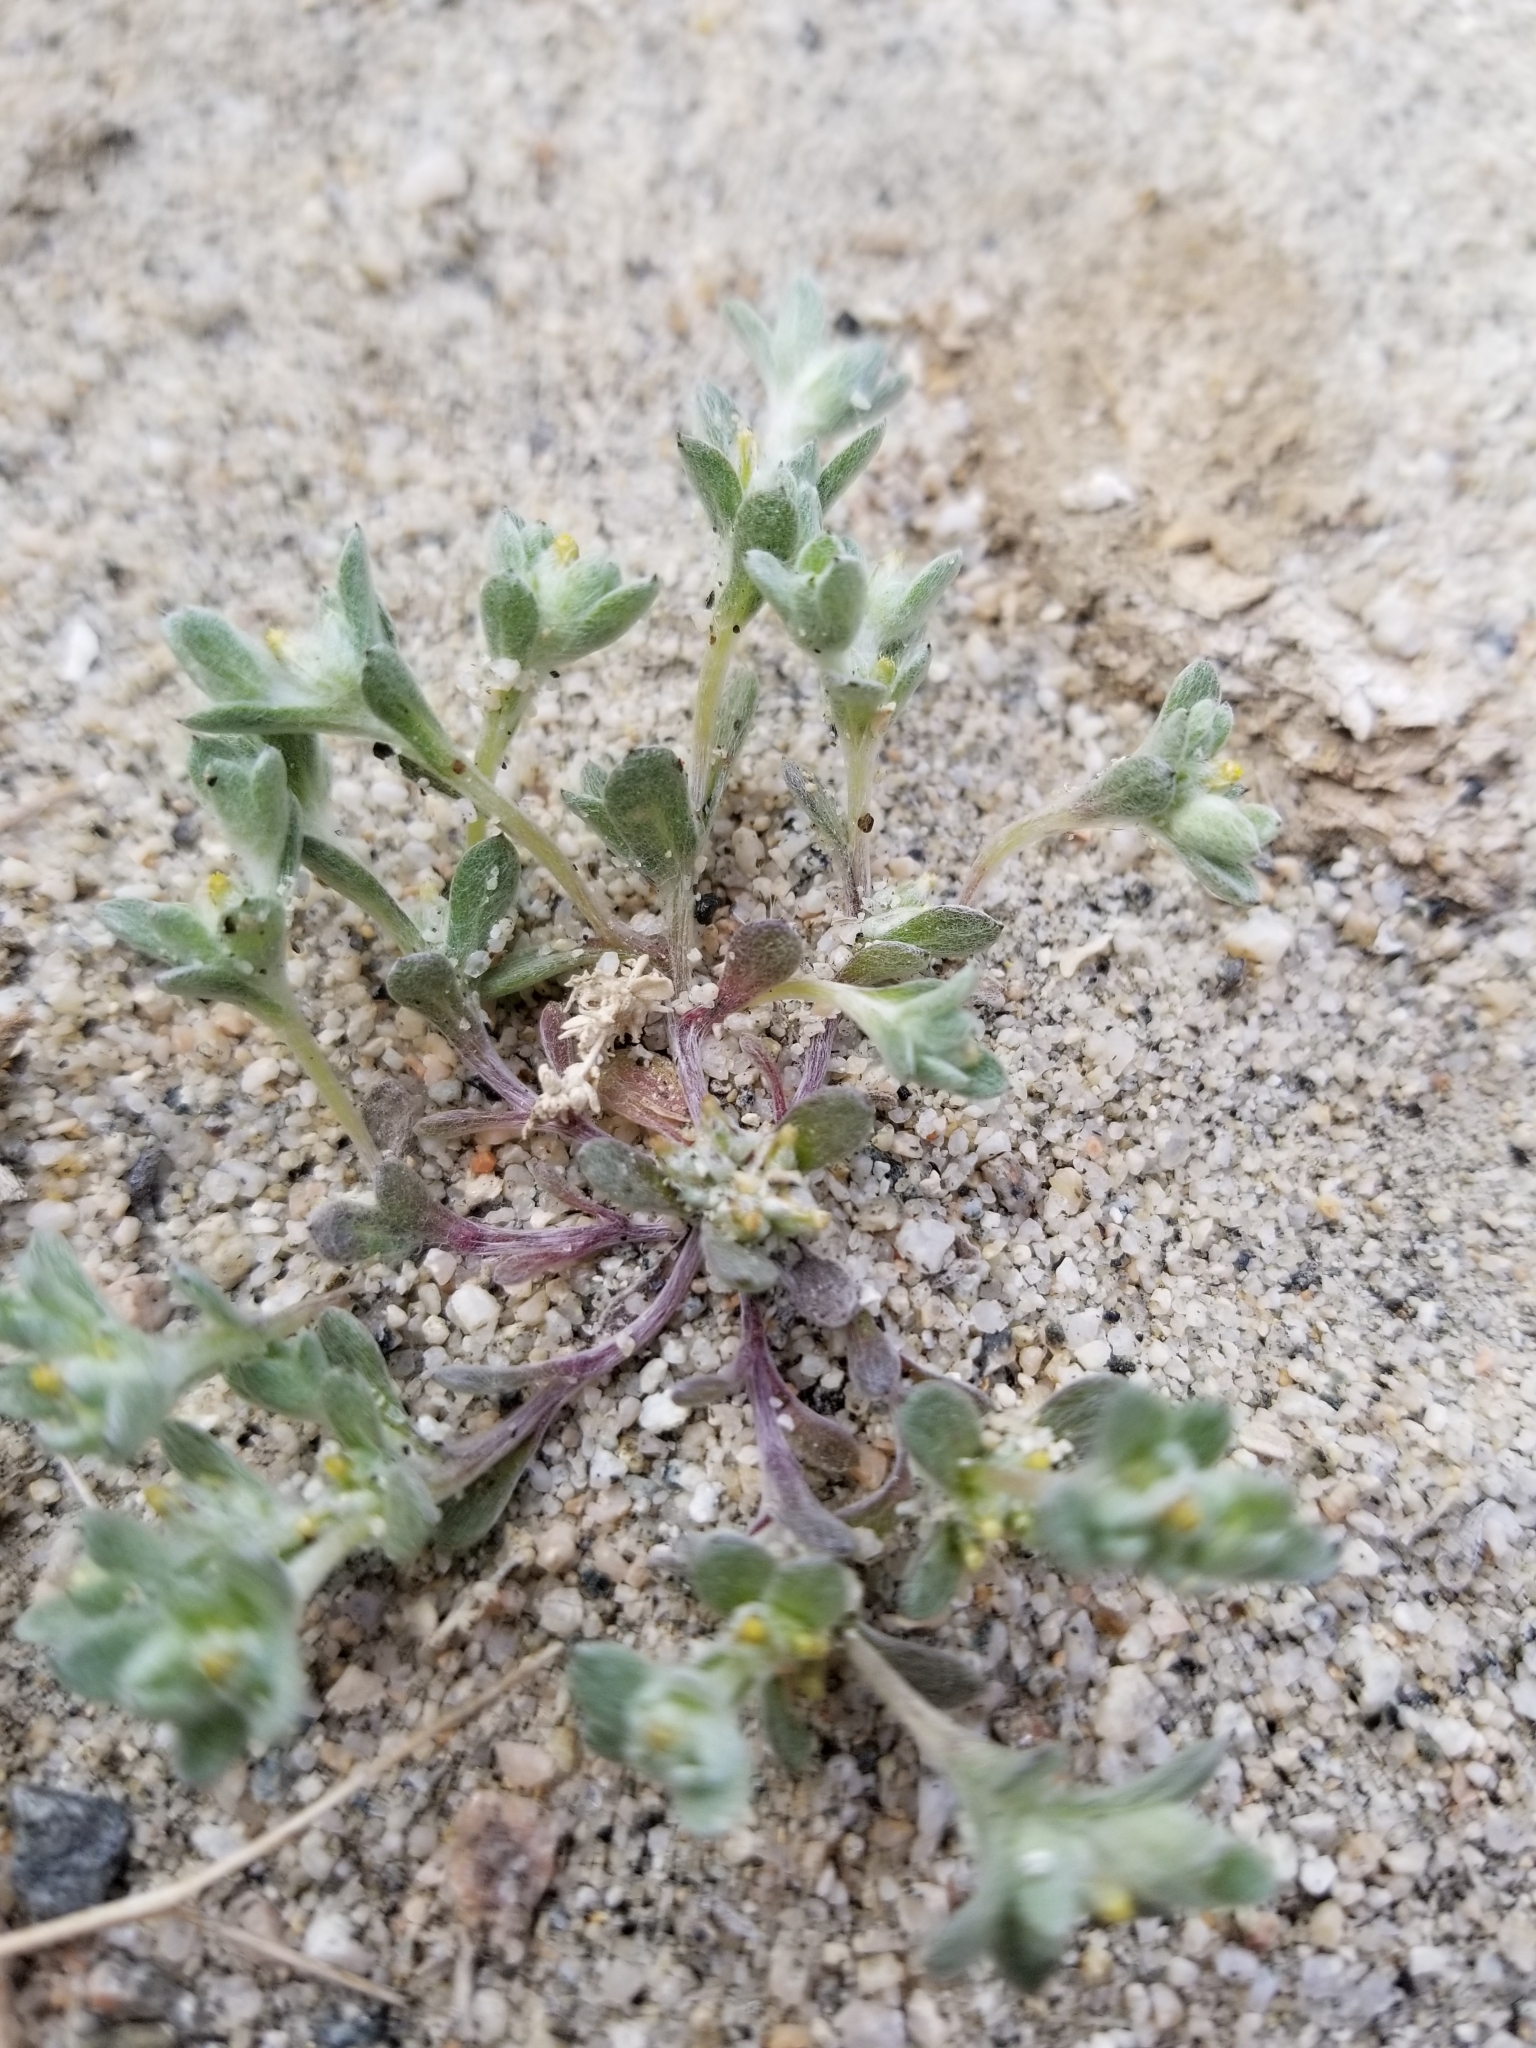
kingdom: Plantae
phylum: Tracheophyta
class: Magnoliopsida
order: Asterales
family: Asteraceae
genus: Logfia
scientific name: Logfia depressa
